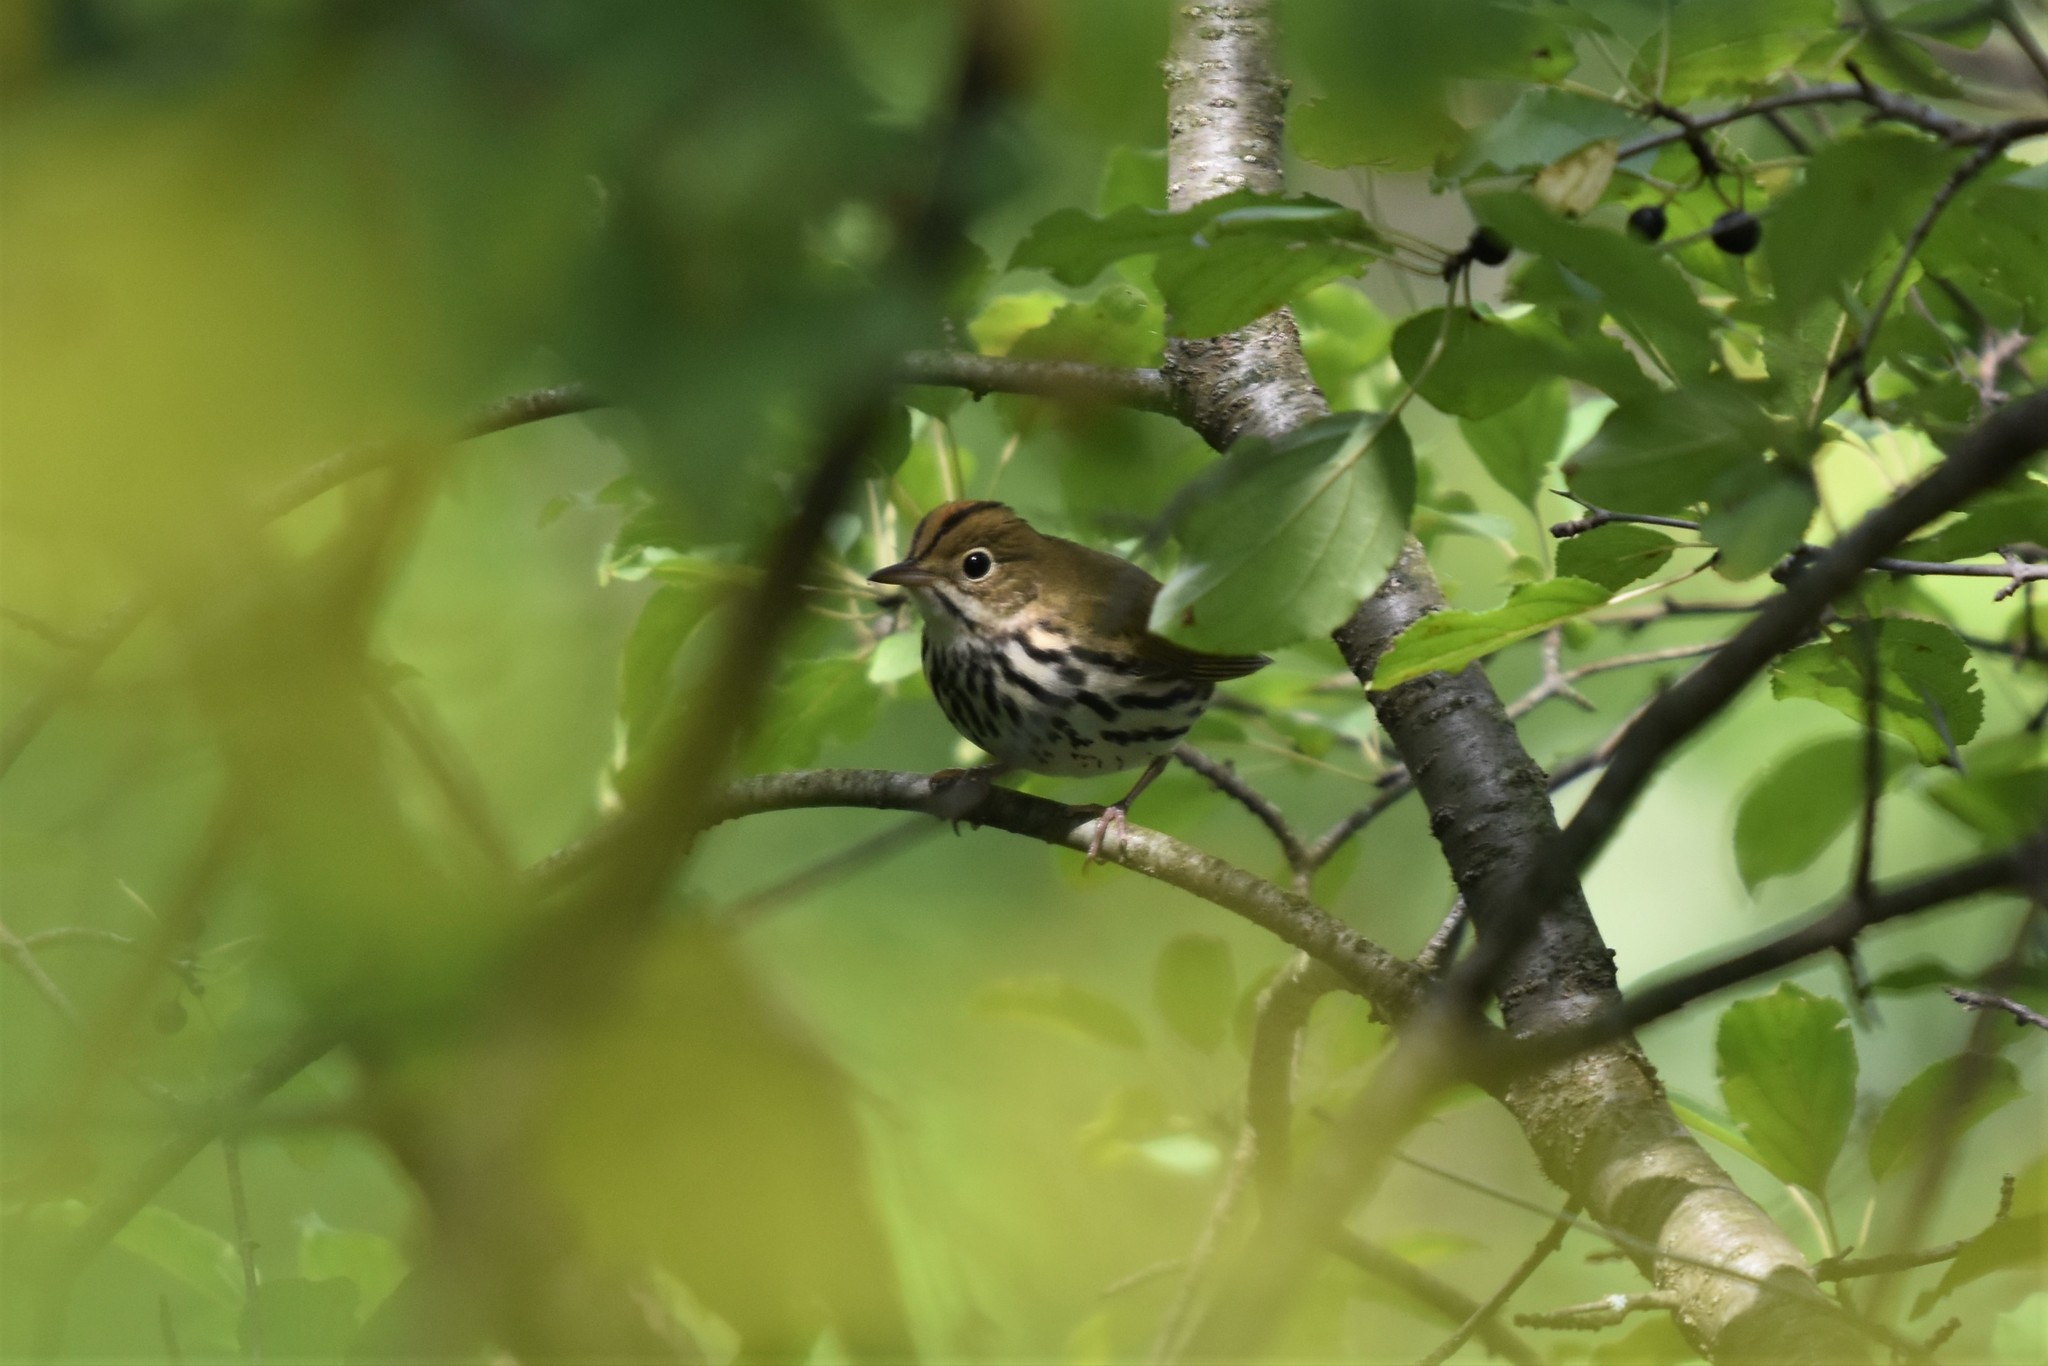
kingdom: Animalia
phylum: Chordata
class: Aves
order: Passeriformes
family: Parulidae
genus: Seiurus
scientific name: Seiurus aurocapilla
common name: Ovenbird
